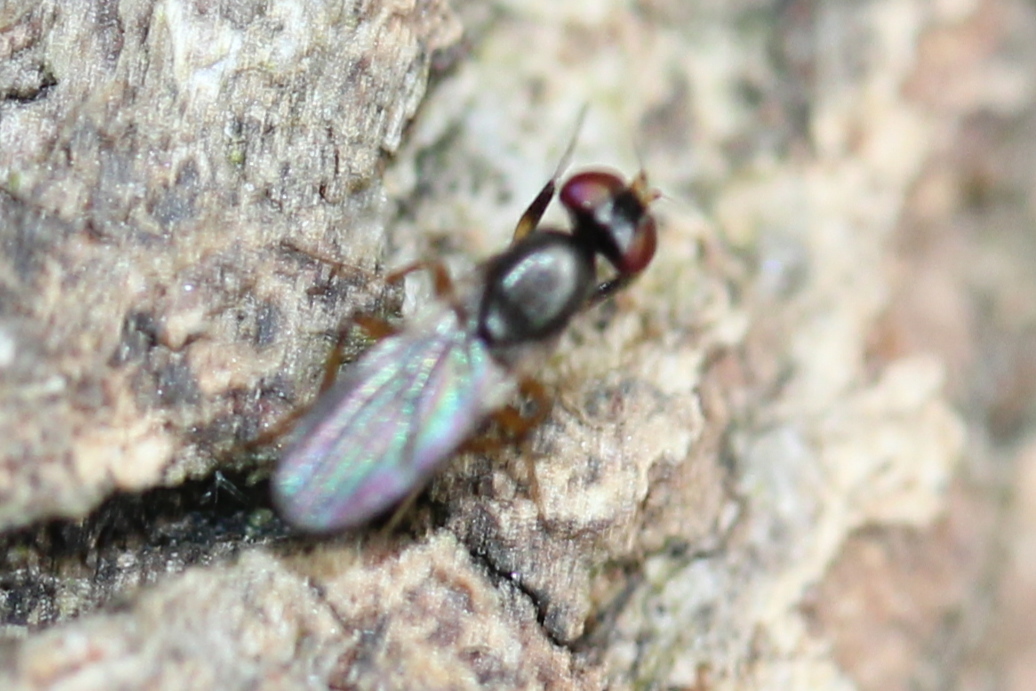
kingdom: Animalia
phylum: Arthropoda
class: Insecta
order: Diptera
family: Clusiidae
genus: Heteromeringia
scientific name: Heteromeringia nitida
